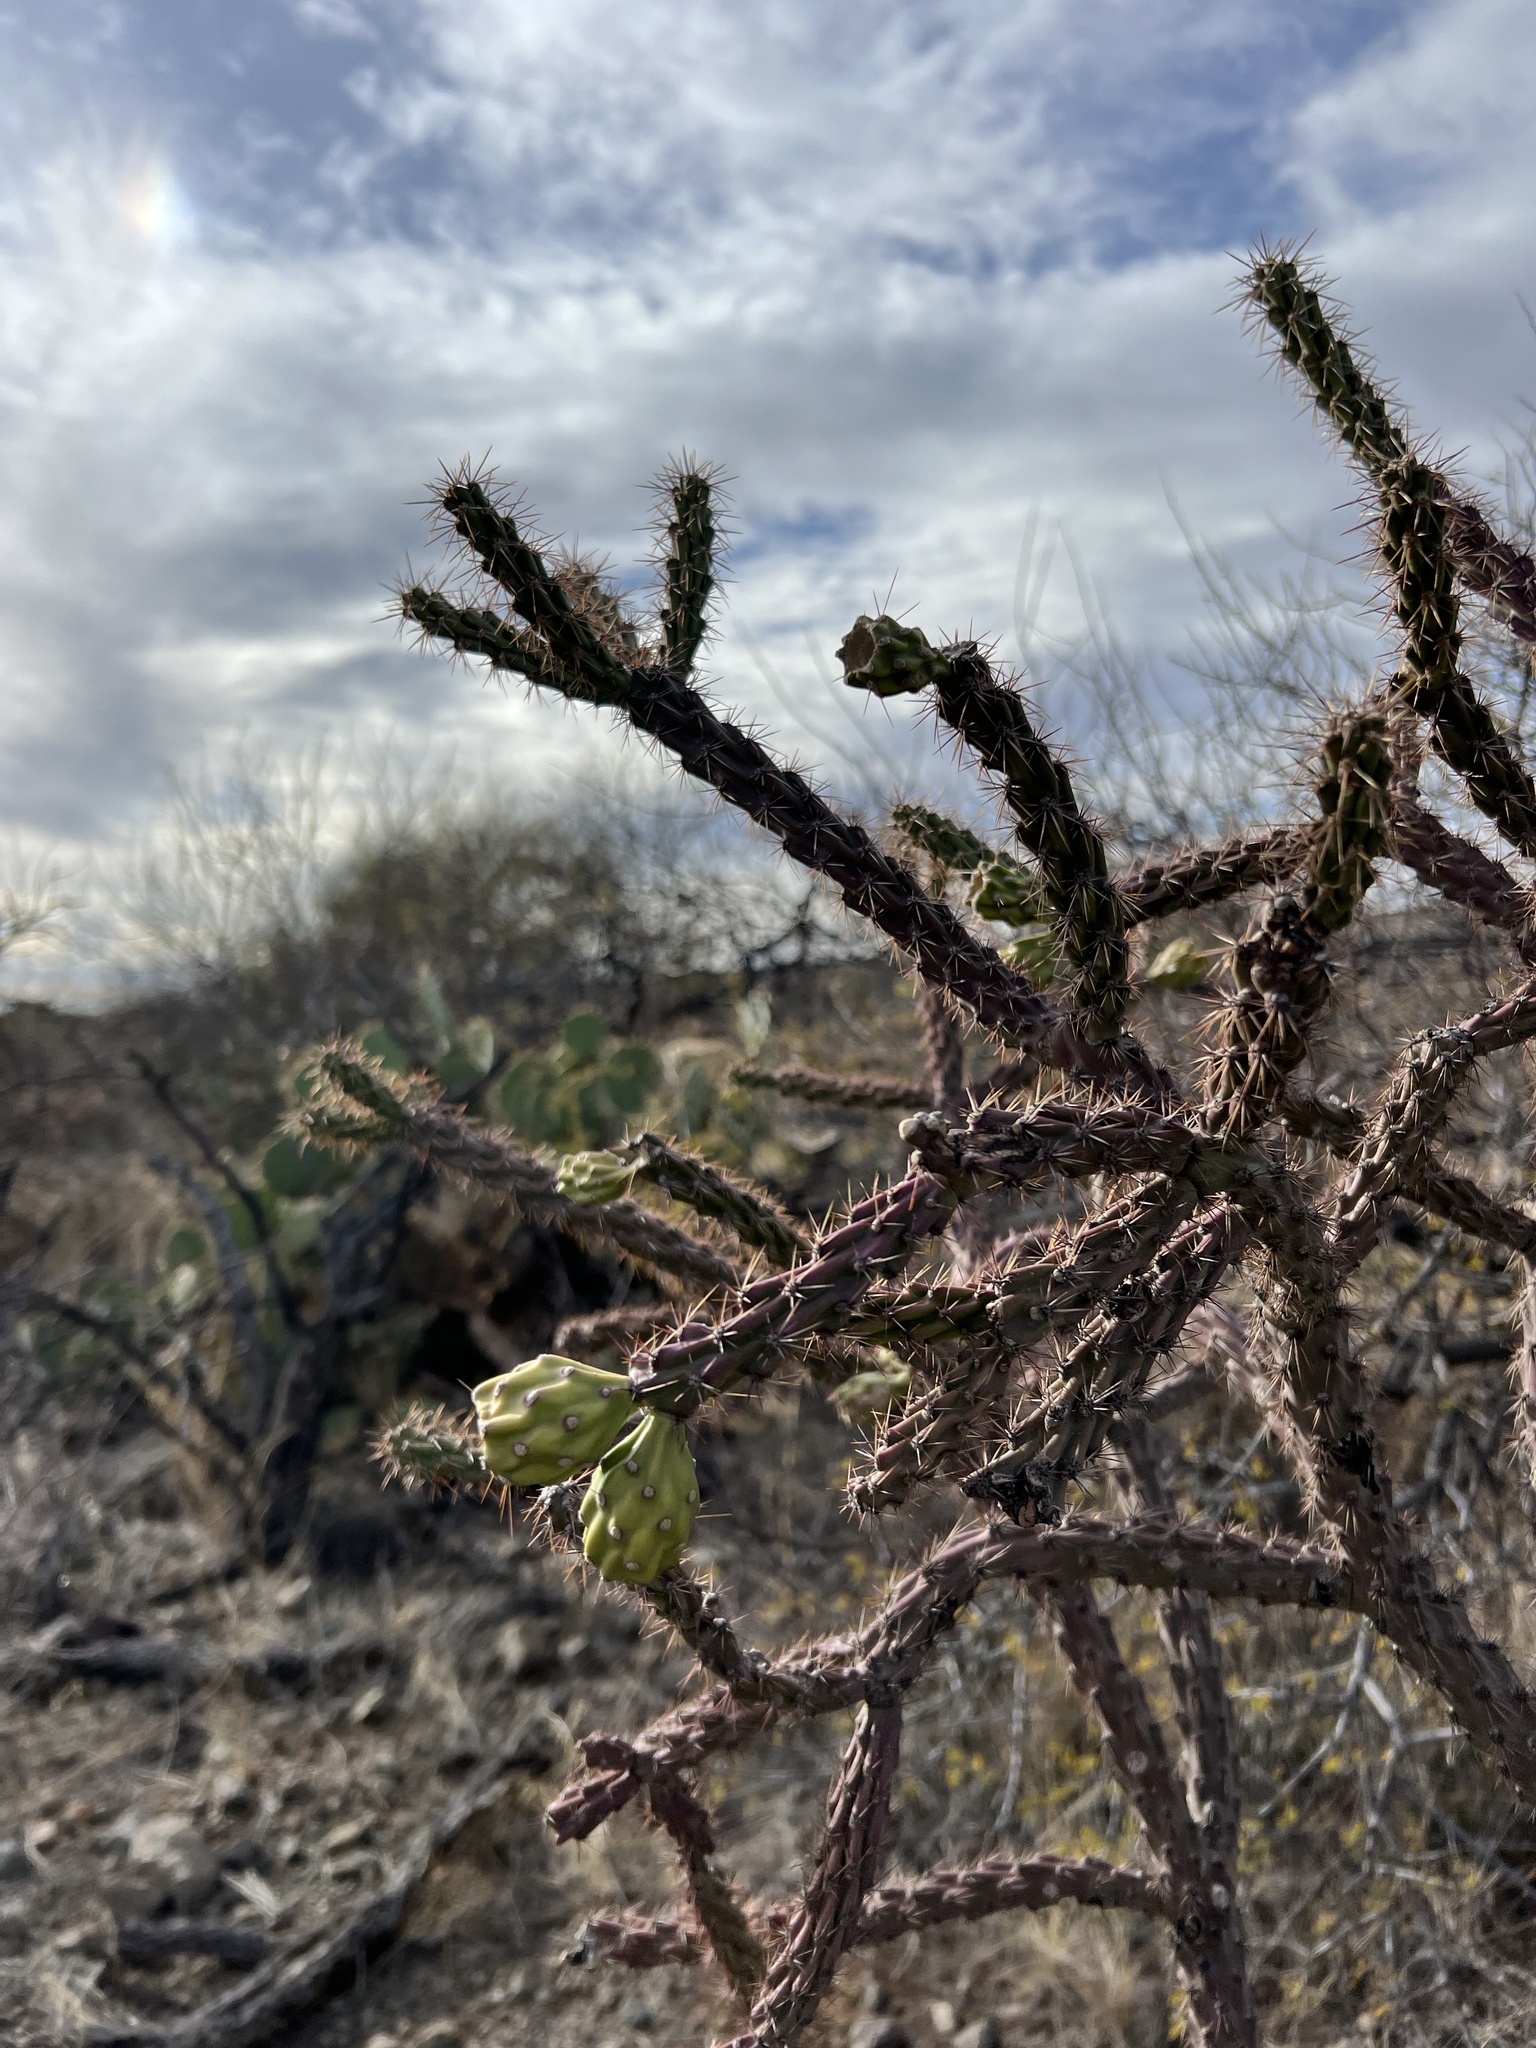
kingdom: Plantae
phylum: Tracheophyta
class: Magnoliopsida
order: Caryophyllales
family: Cactaceae
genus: Cylindropuntia
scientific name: Cylindropuntia thurberi
